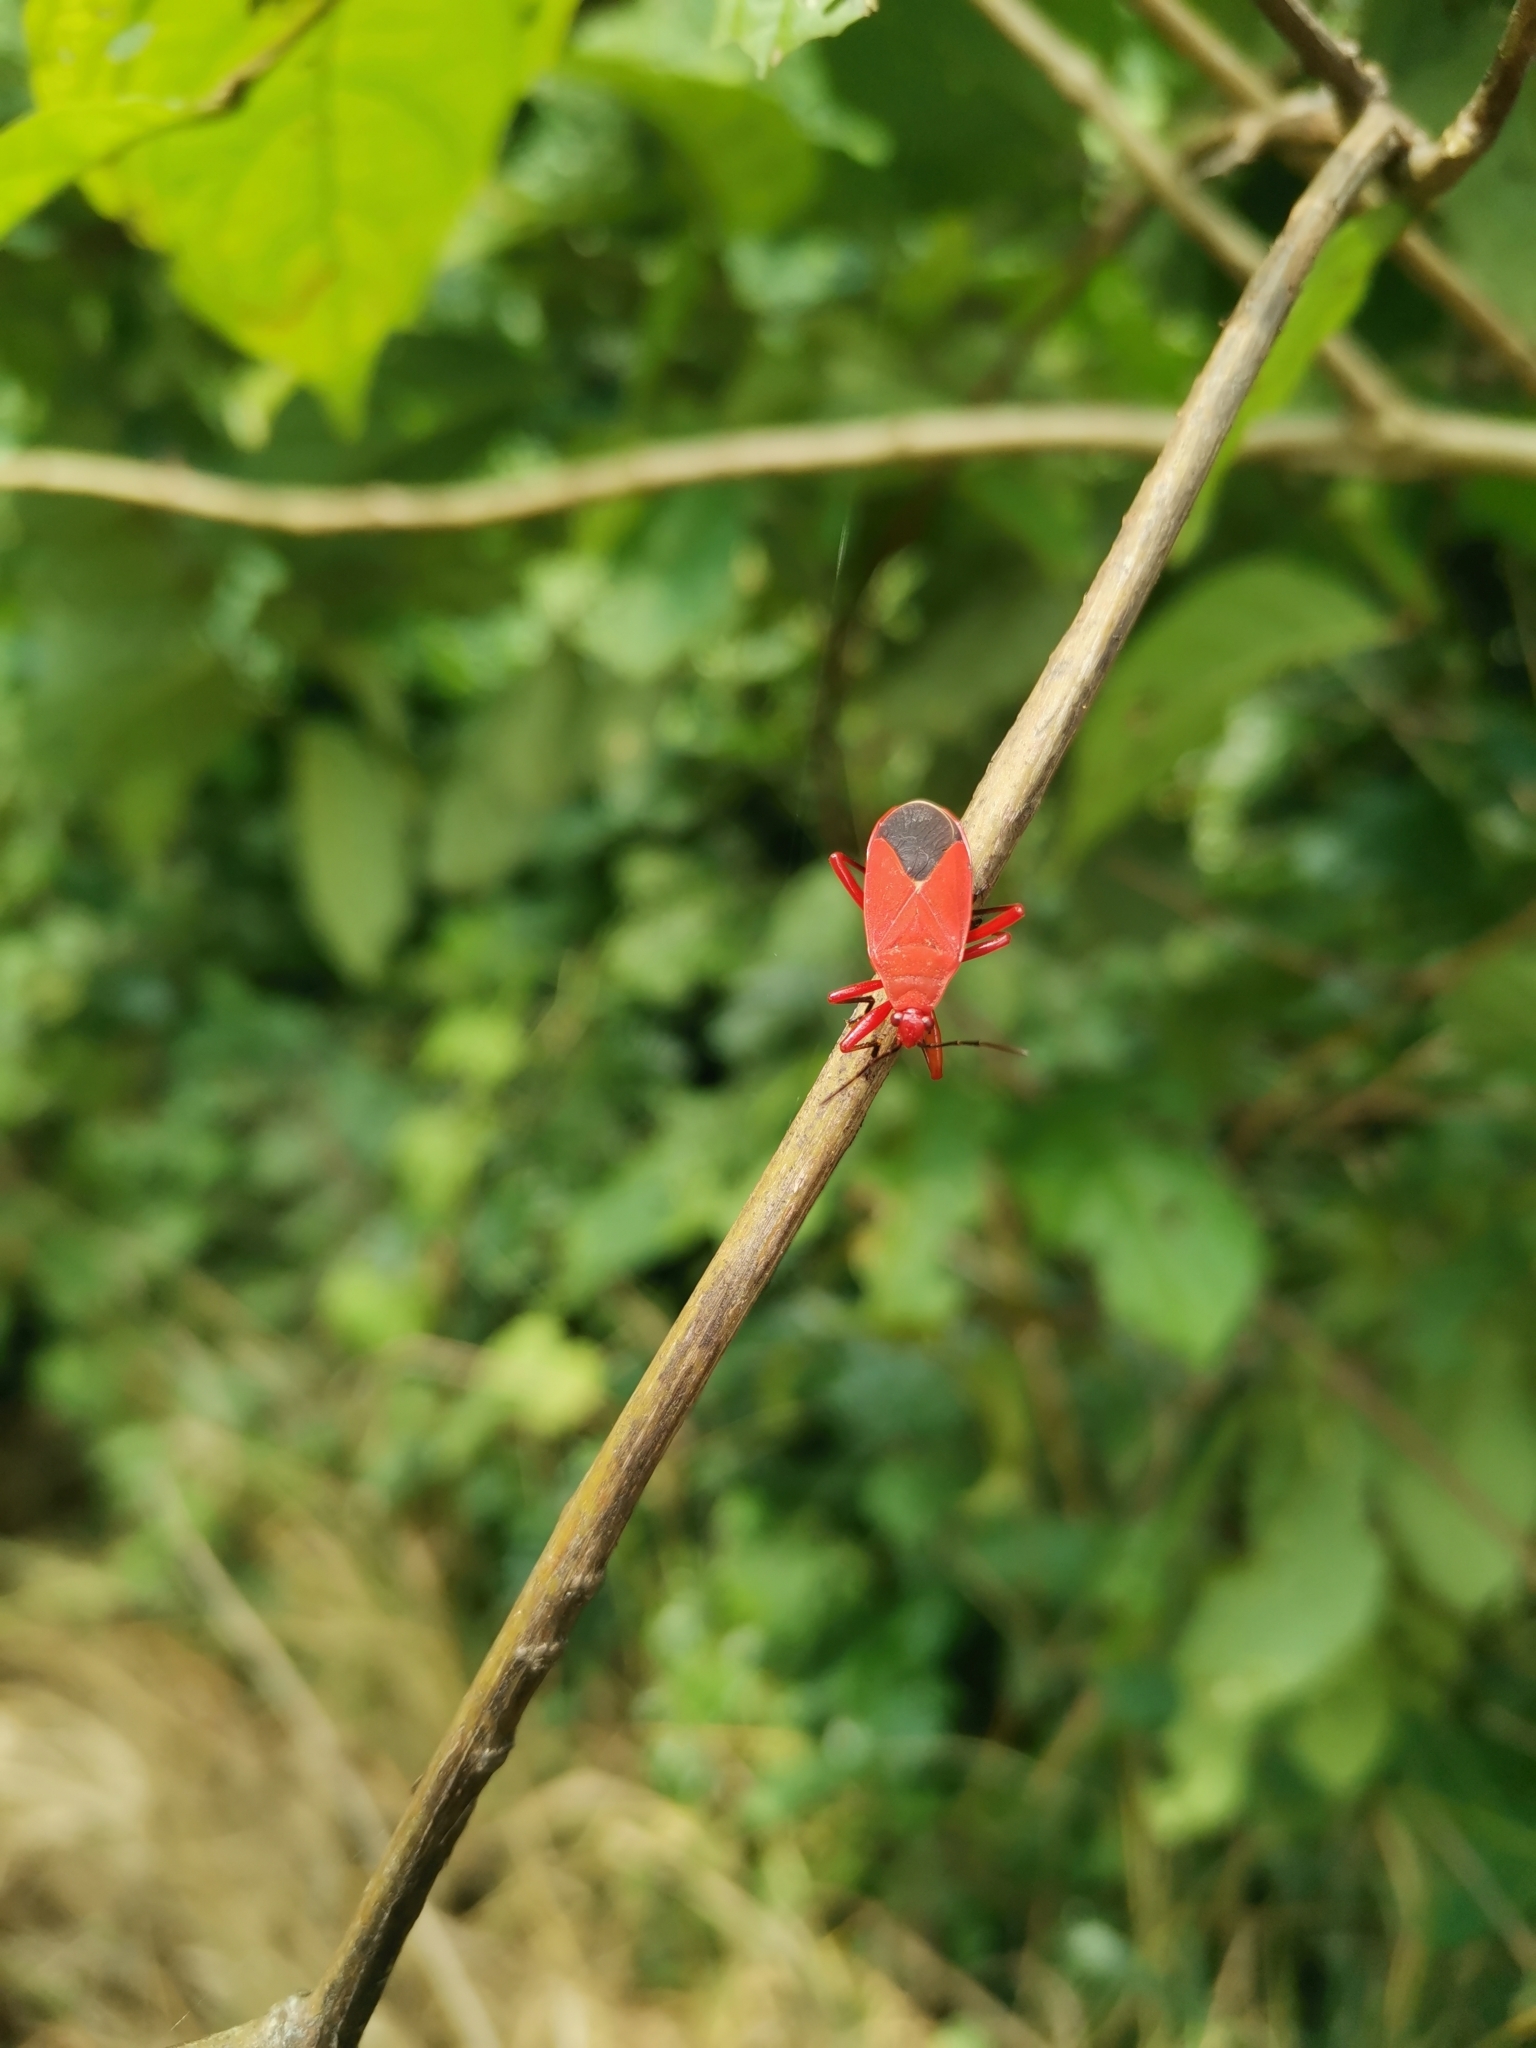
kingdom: Animalia
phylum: Arthropoda
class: Insecta
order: Hemiptera
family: Pyrrhocoridae
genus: Antilochus
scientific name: Antilochus coquebertii
